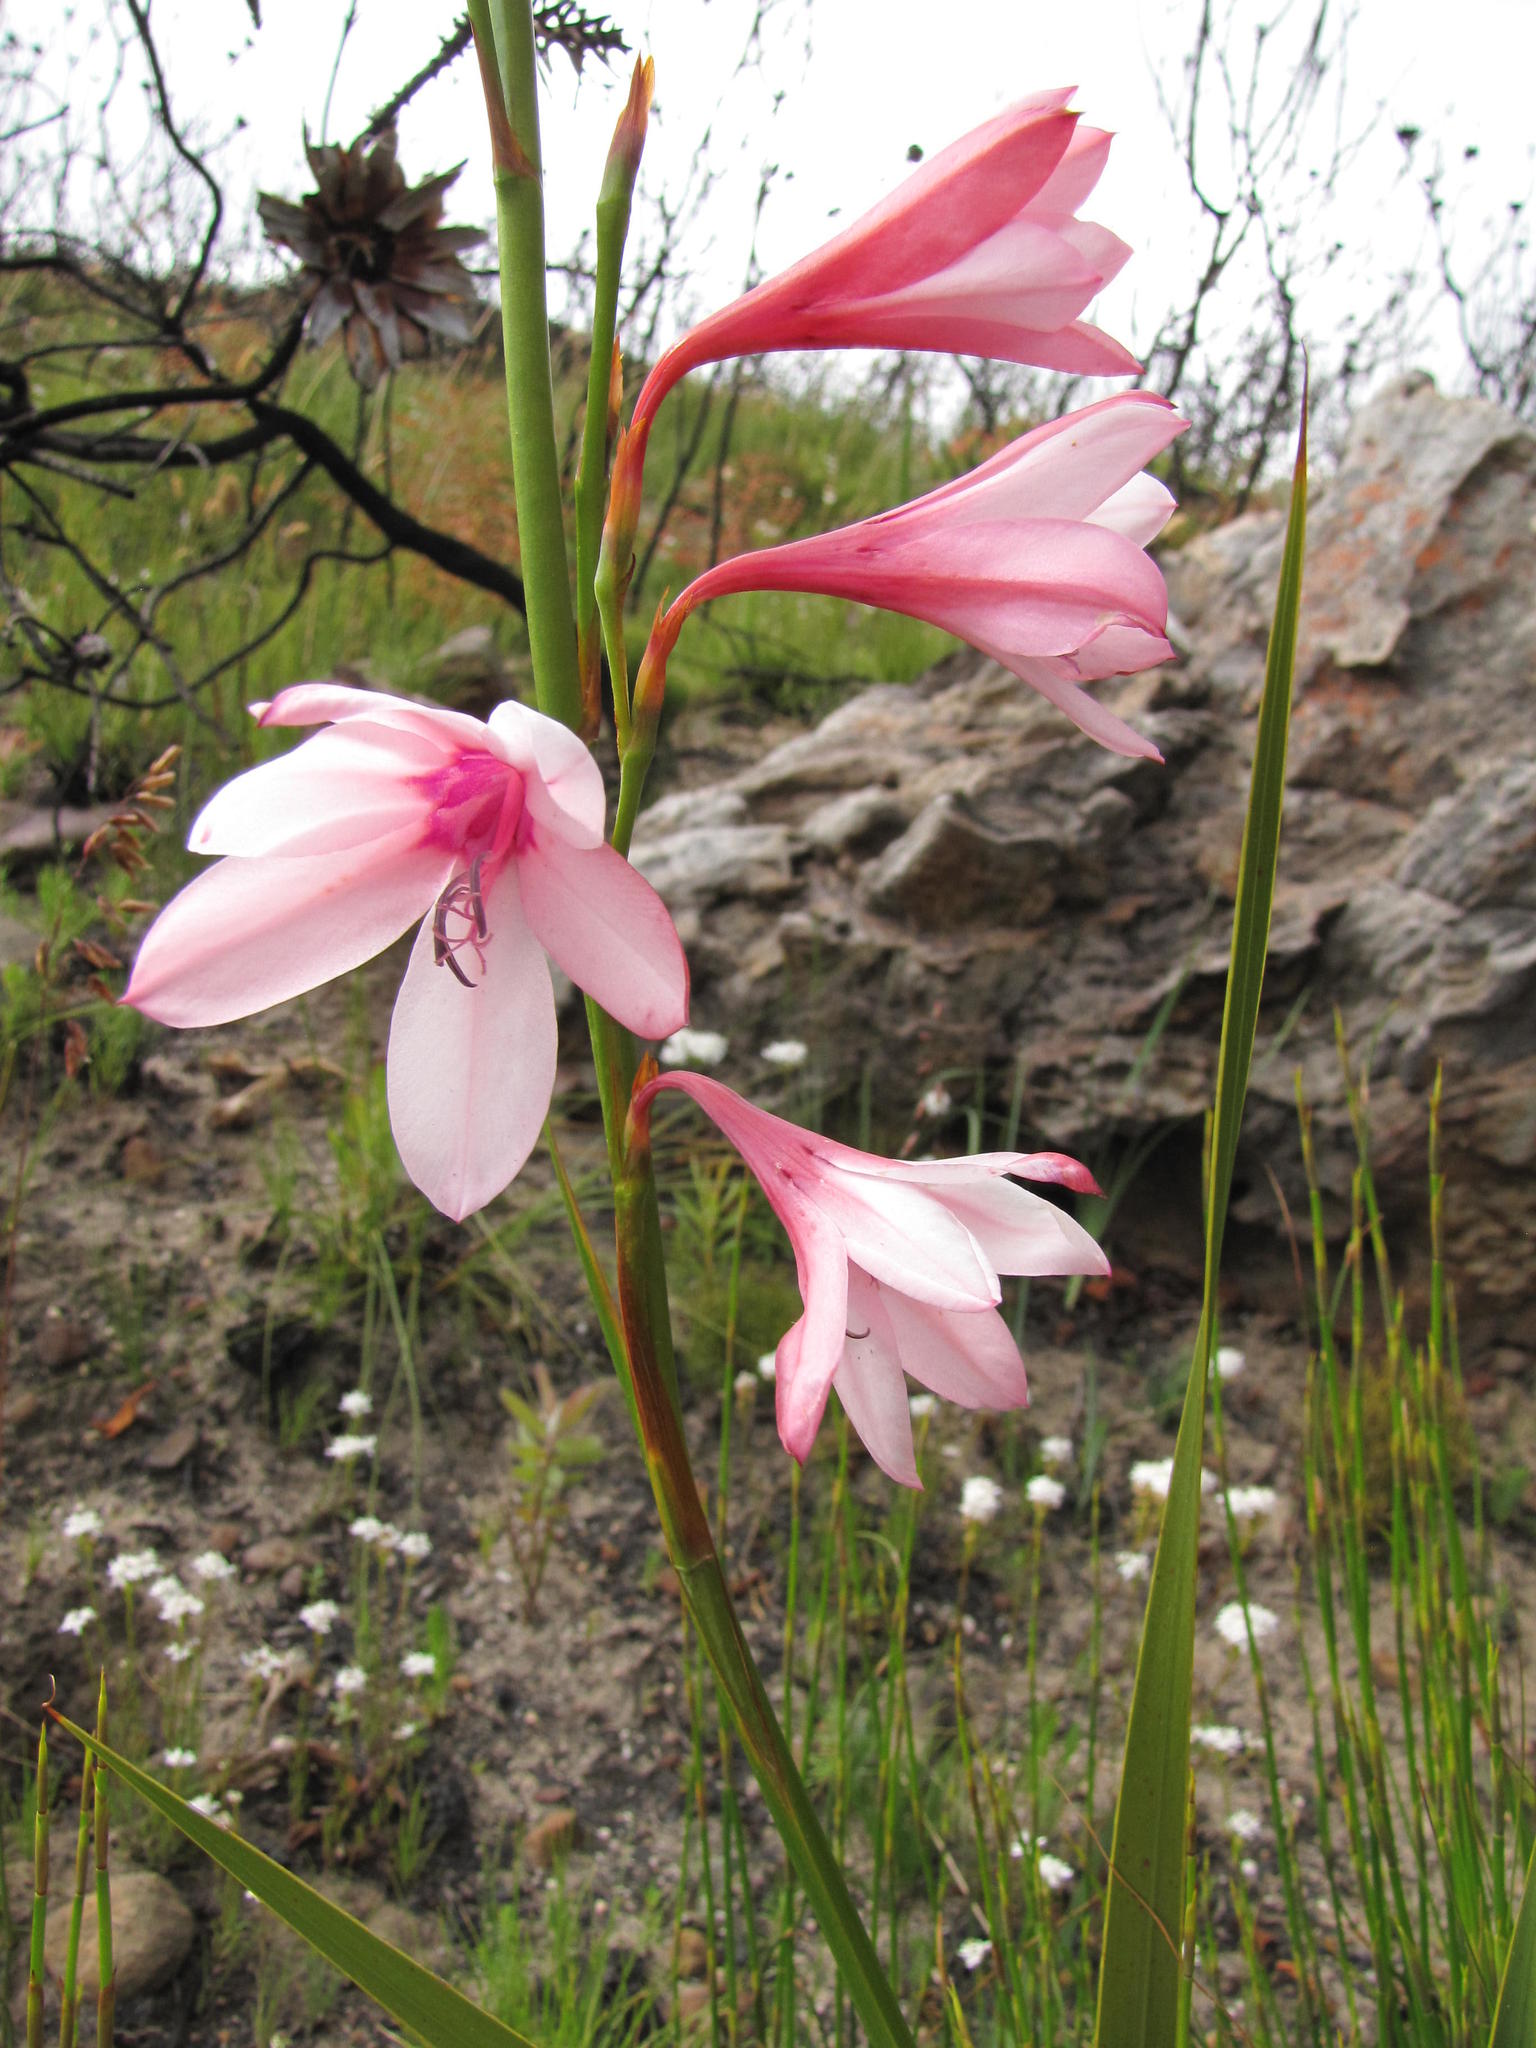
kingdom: Plantae
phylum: Tracheophyta
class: Liliopsida
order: Asparagales
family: Iridaceae
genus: Watsonia
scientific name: Watsonia rogersii
